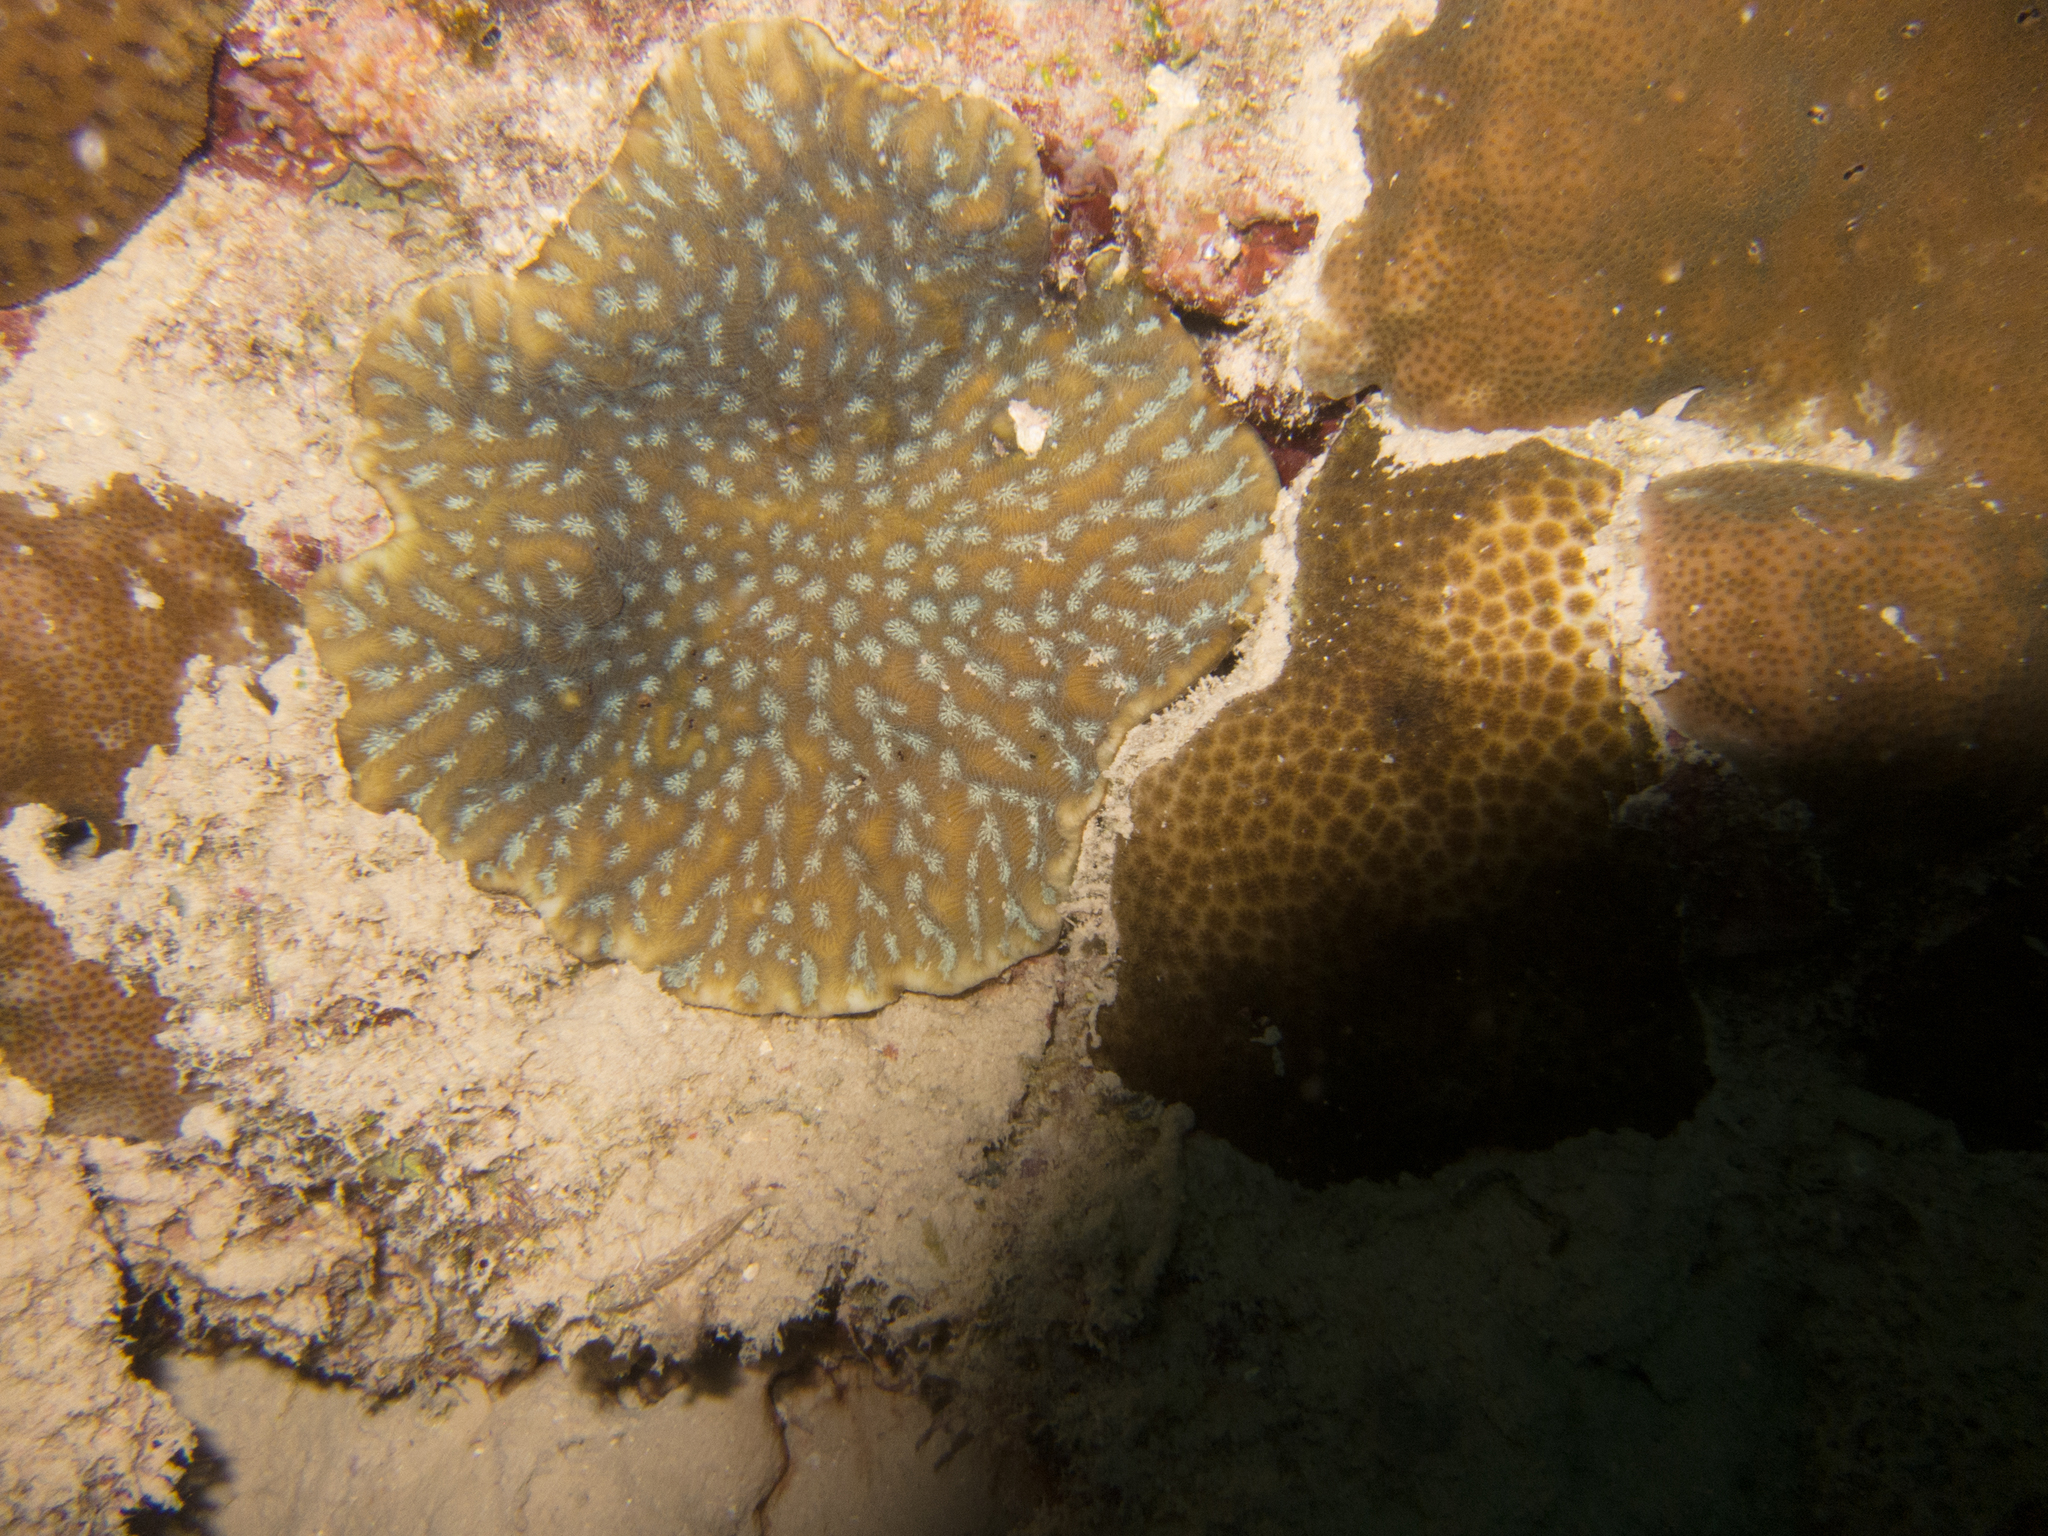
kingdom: Animalia
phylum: Cnidaria
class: Anthozoa
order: Scleractinia
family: Agariciidae
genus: Pavona
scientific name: Pavona varians
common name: Leaf coral
